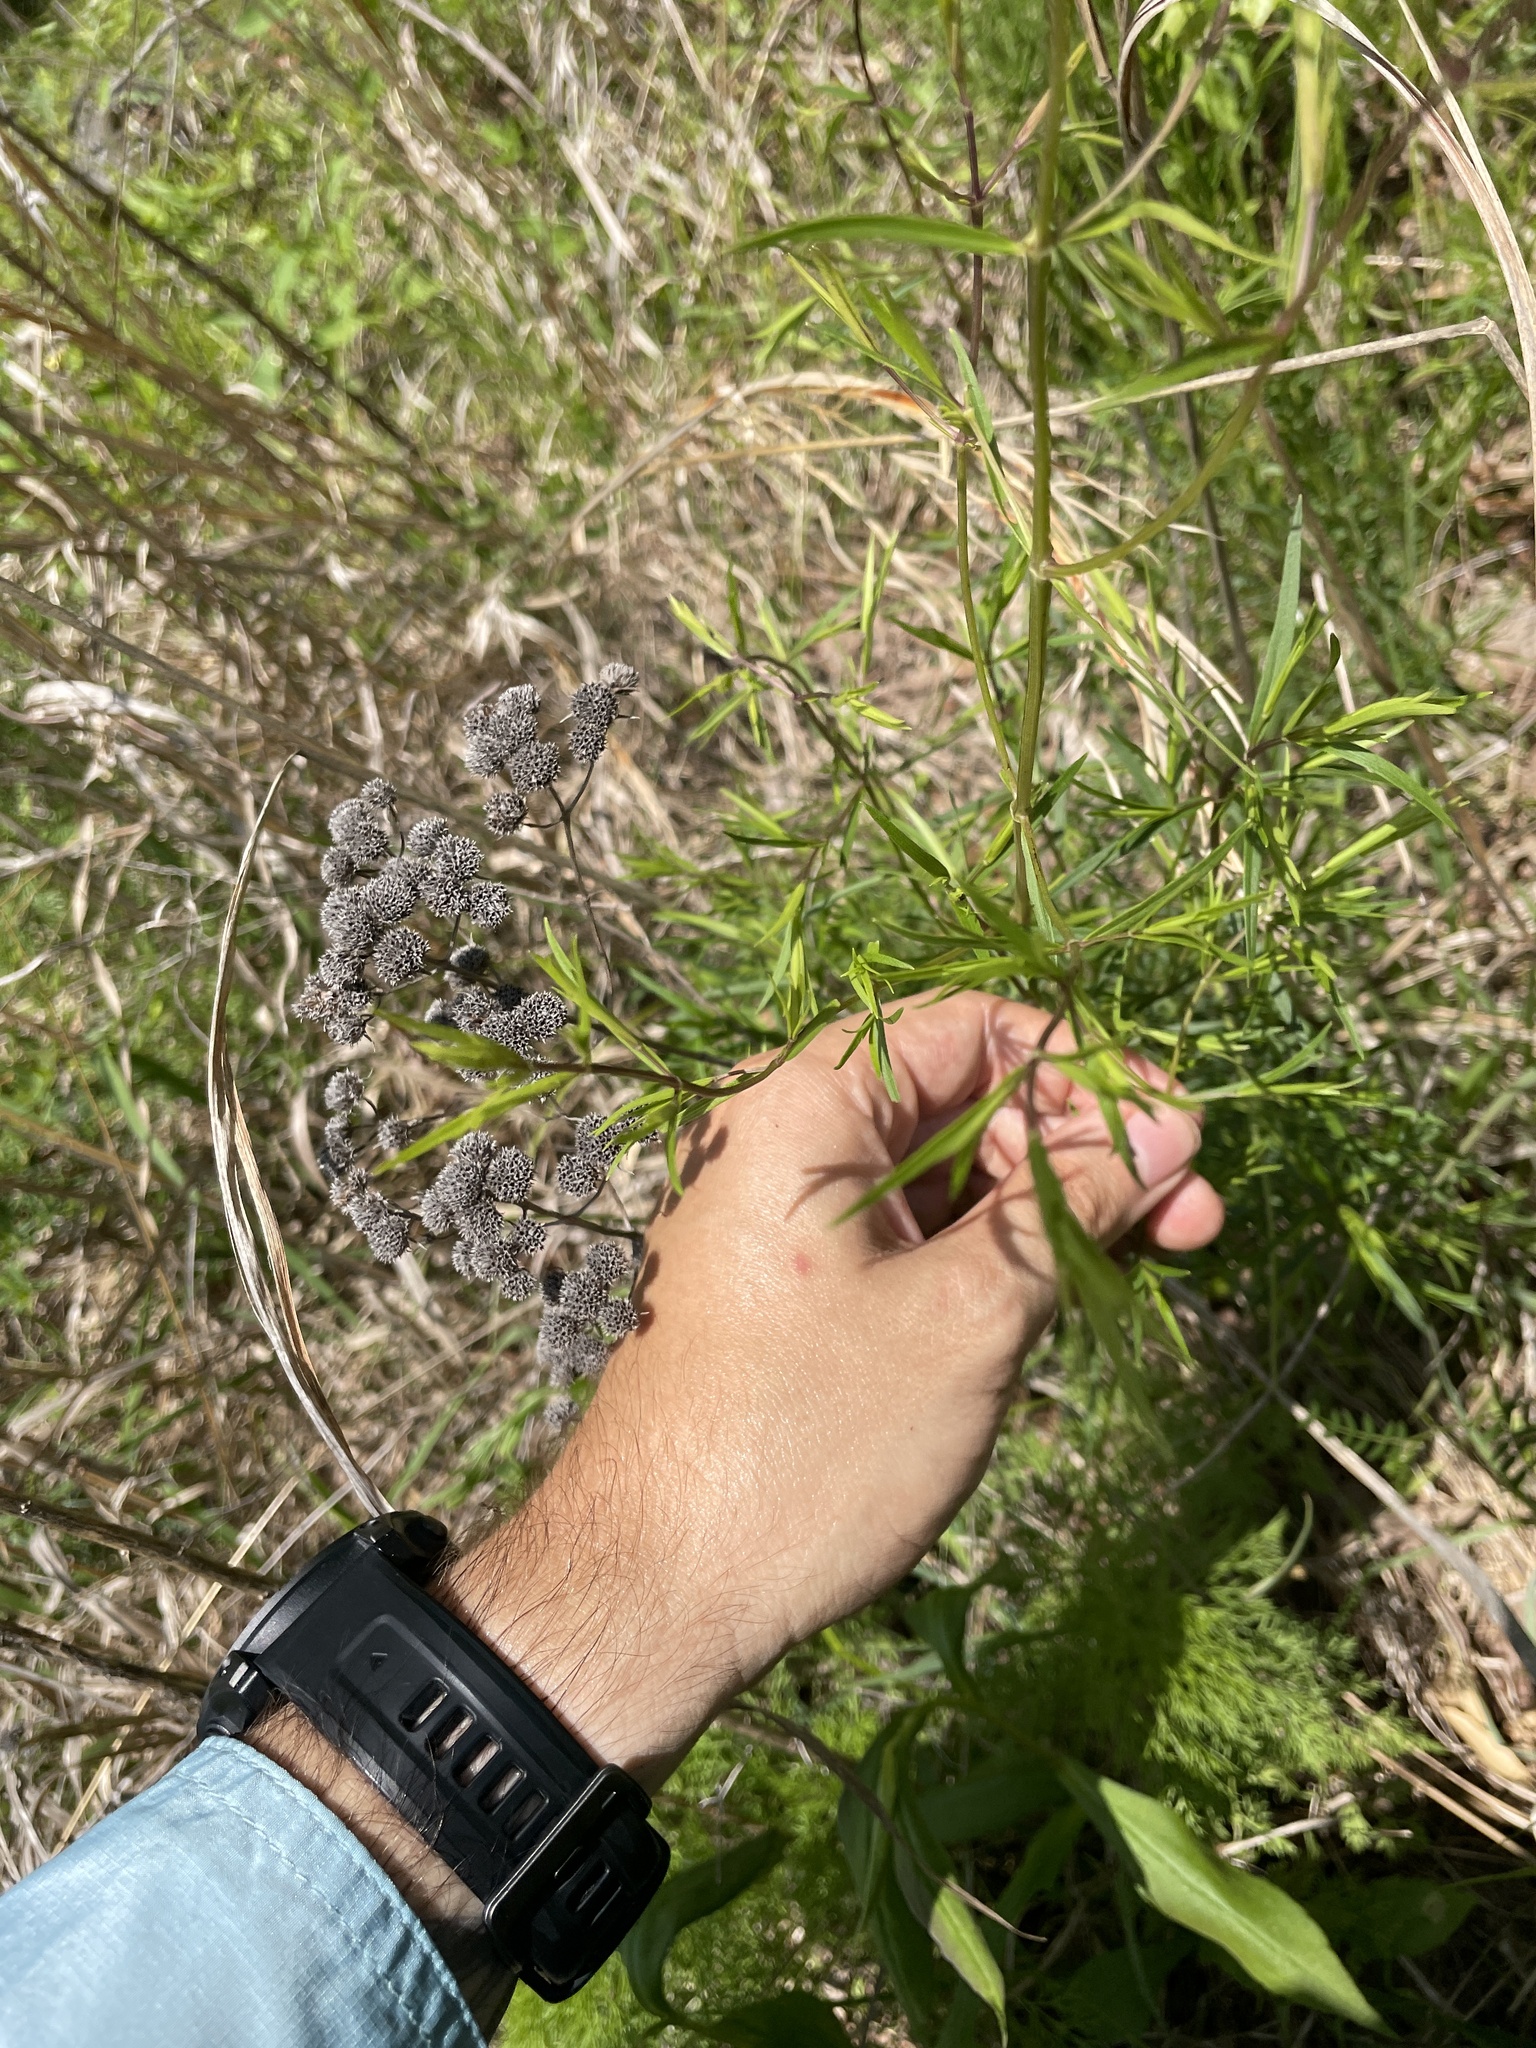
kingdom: Plantae
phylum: Tracheophyta
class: Magnoliopsida
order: Lamiales
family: Lamiaceae
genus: Pycnanthemum
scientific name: Pycnanthemum tenuifolium
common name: Narrow-leaf mountain-mint
